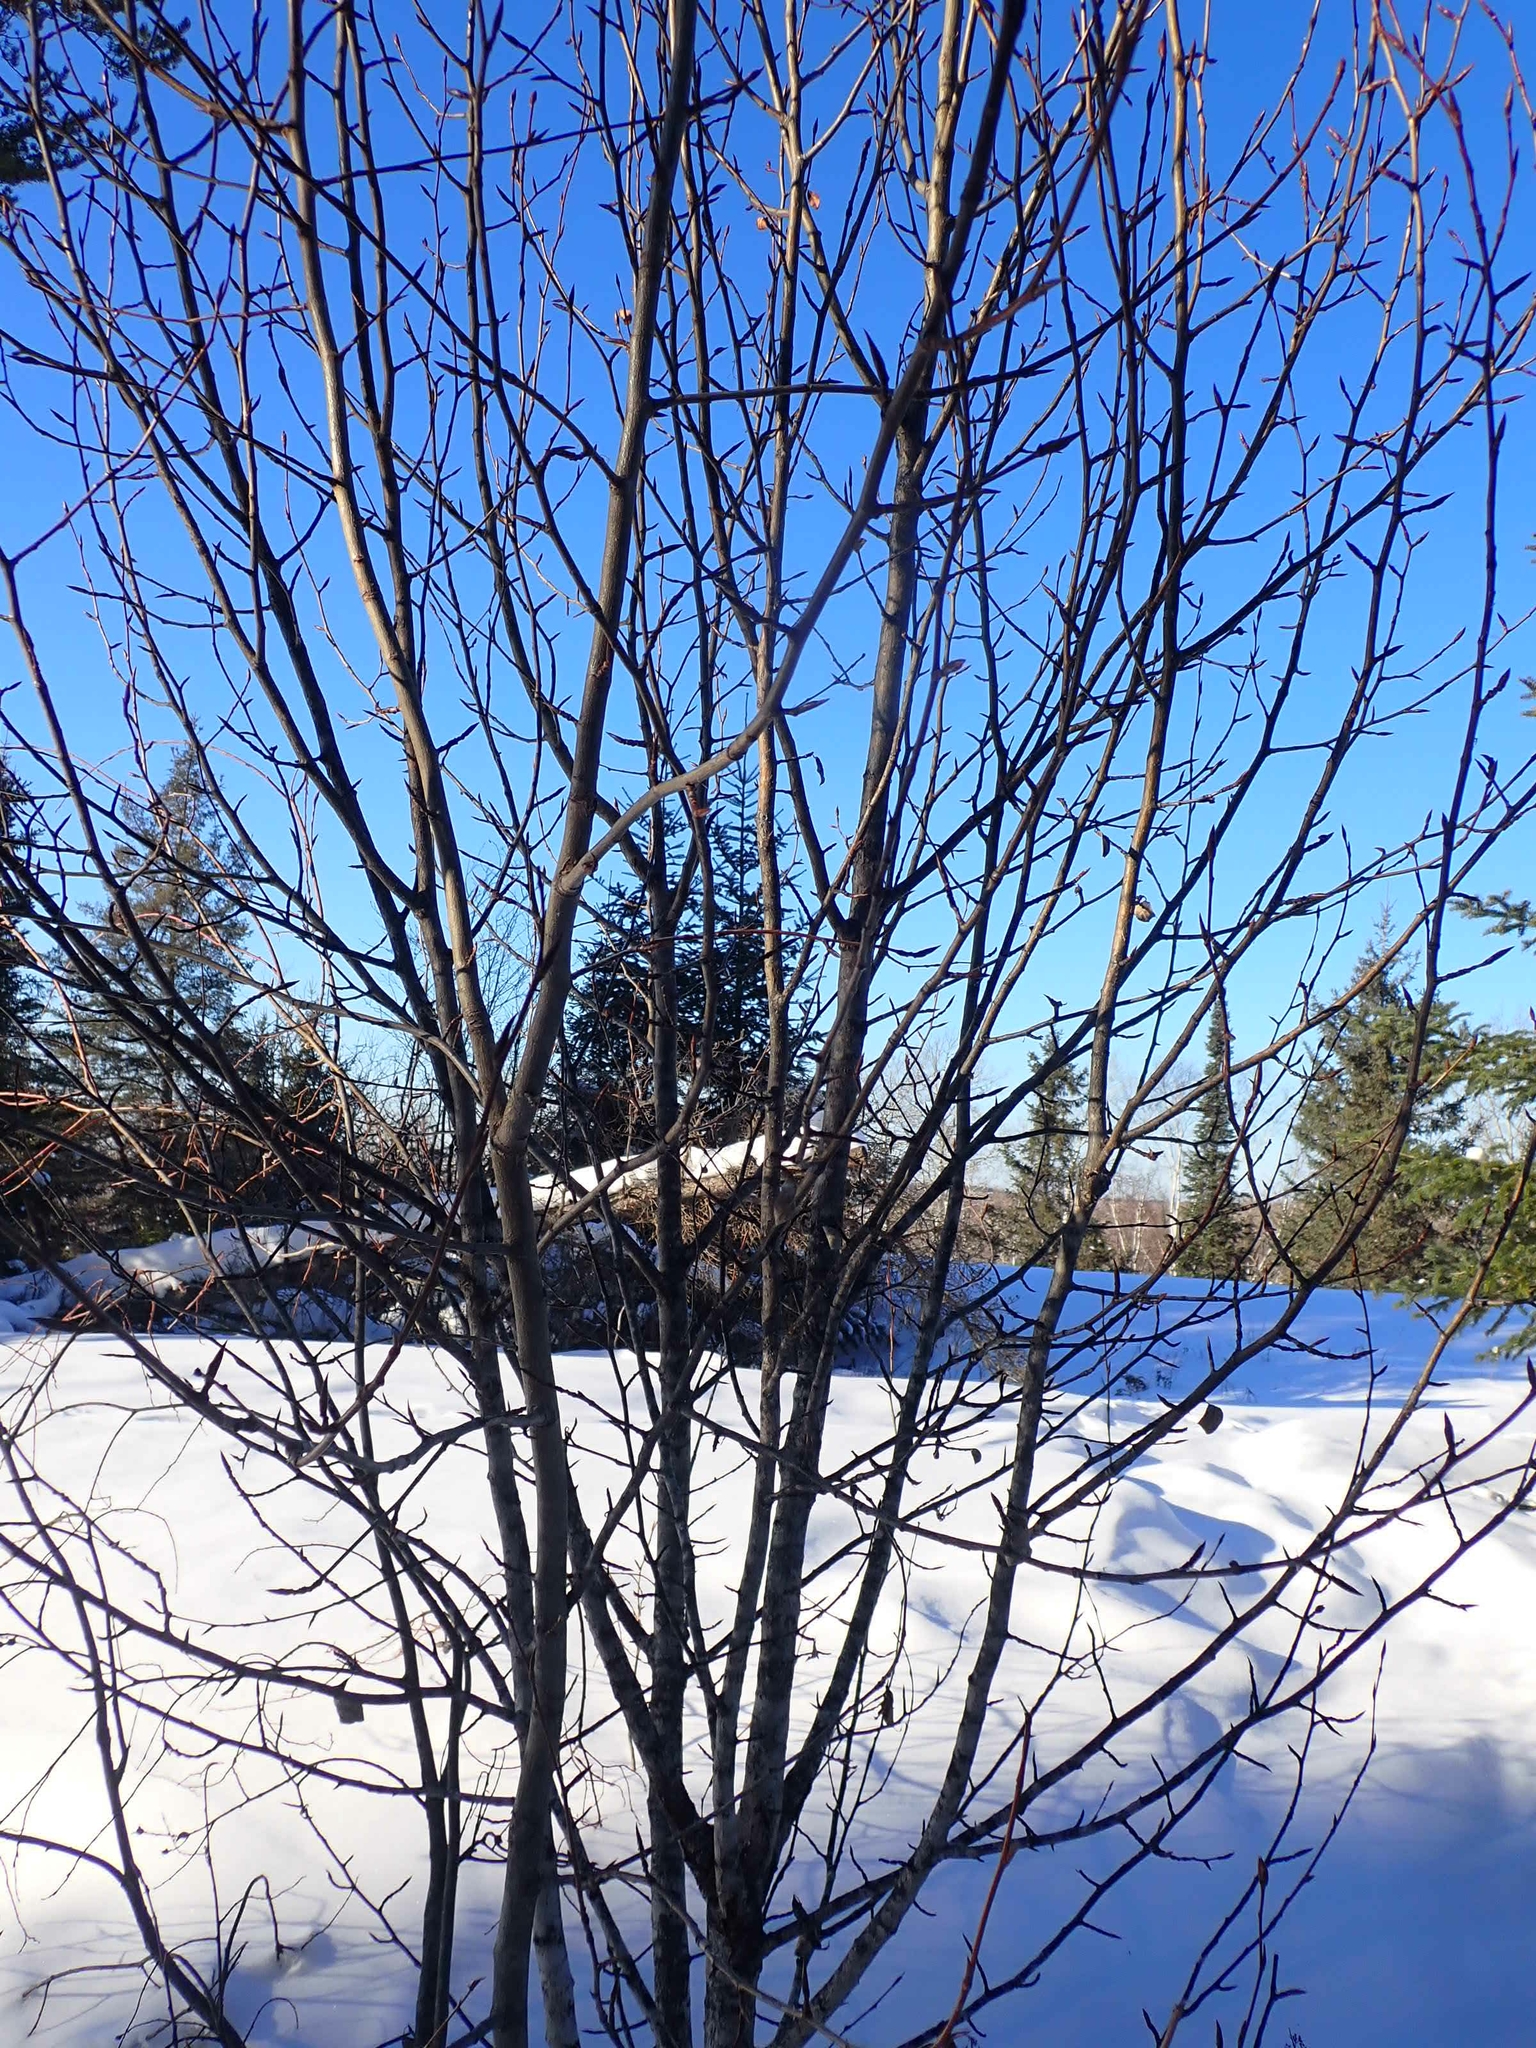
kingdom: Plantae
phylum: Tracheophyta
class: Magnoliopsida
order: Malpighiales
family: Salicaceae
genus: Populus
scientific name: Populus balsamifera
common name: Balsam poplar
